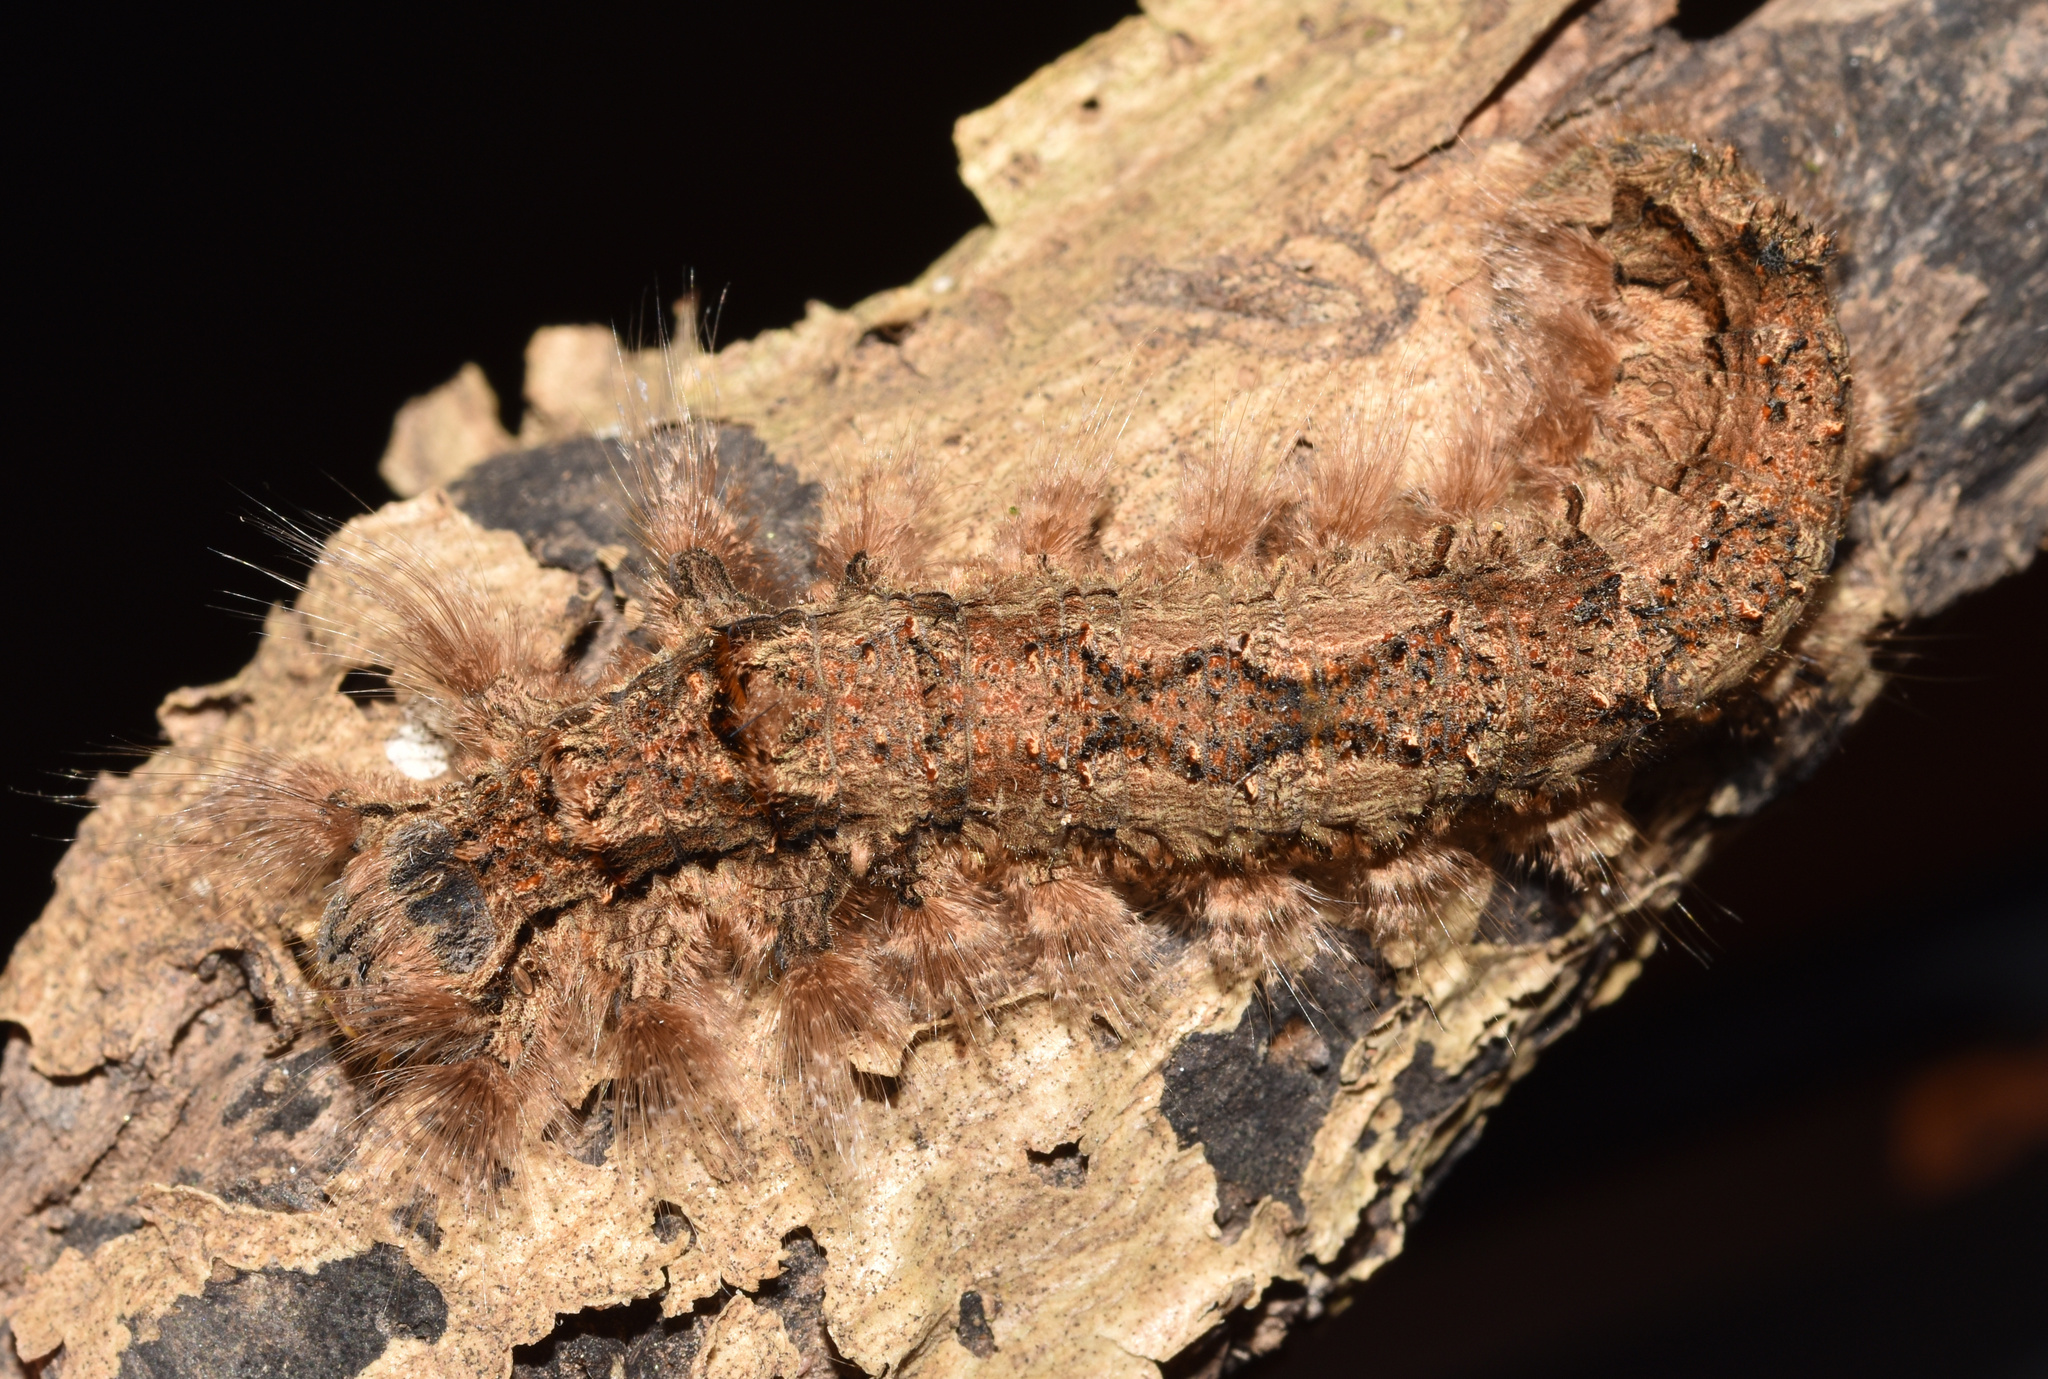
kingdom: Animalia
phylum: Arthropoda
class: Insecta
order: Lepidoptera
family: Lasiocampidae
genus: Stoermeriana
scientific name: Stoermeriana scapulosa
